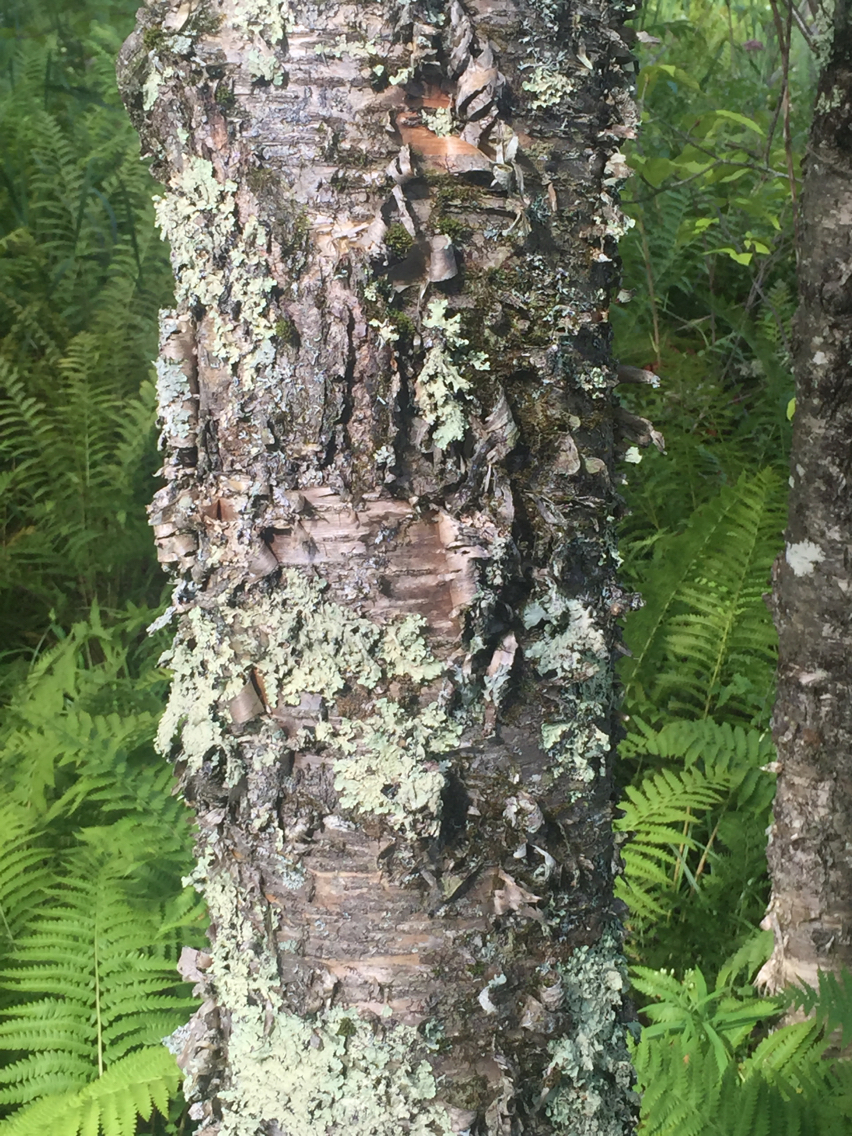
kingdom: Plantae
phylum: Tracheophyta
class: Magnoliopsida
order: Fagales
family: Betulaceae
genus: Betula
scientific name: Betula alleghaniensis
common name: Yellow birch
